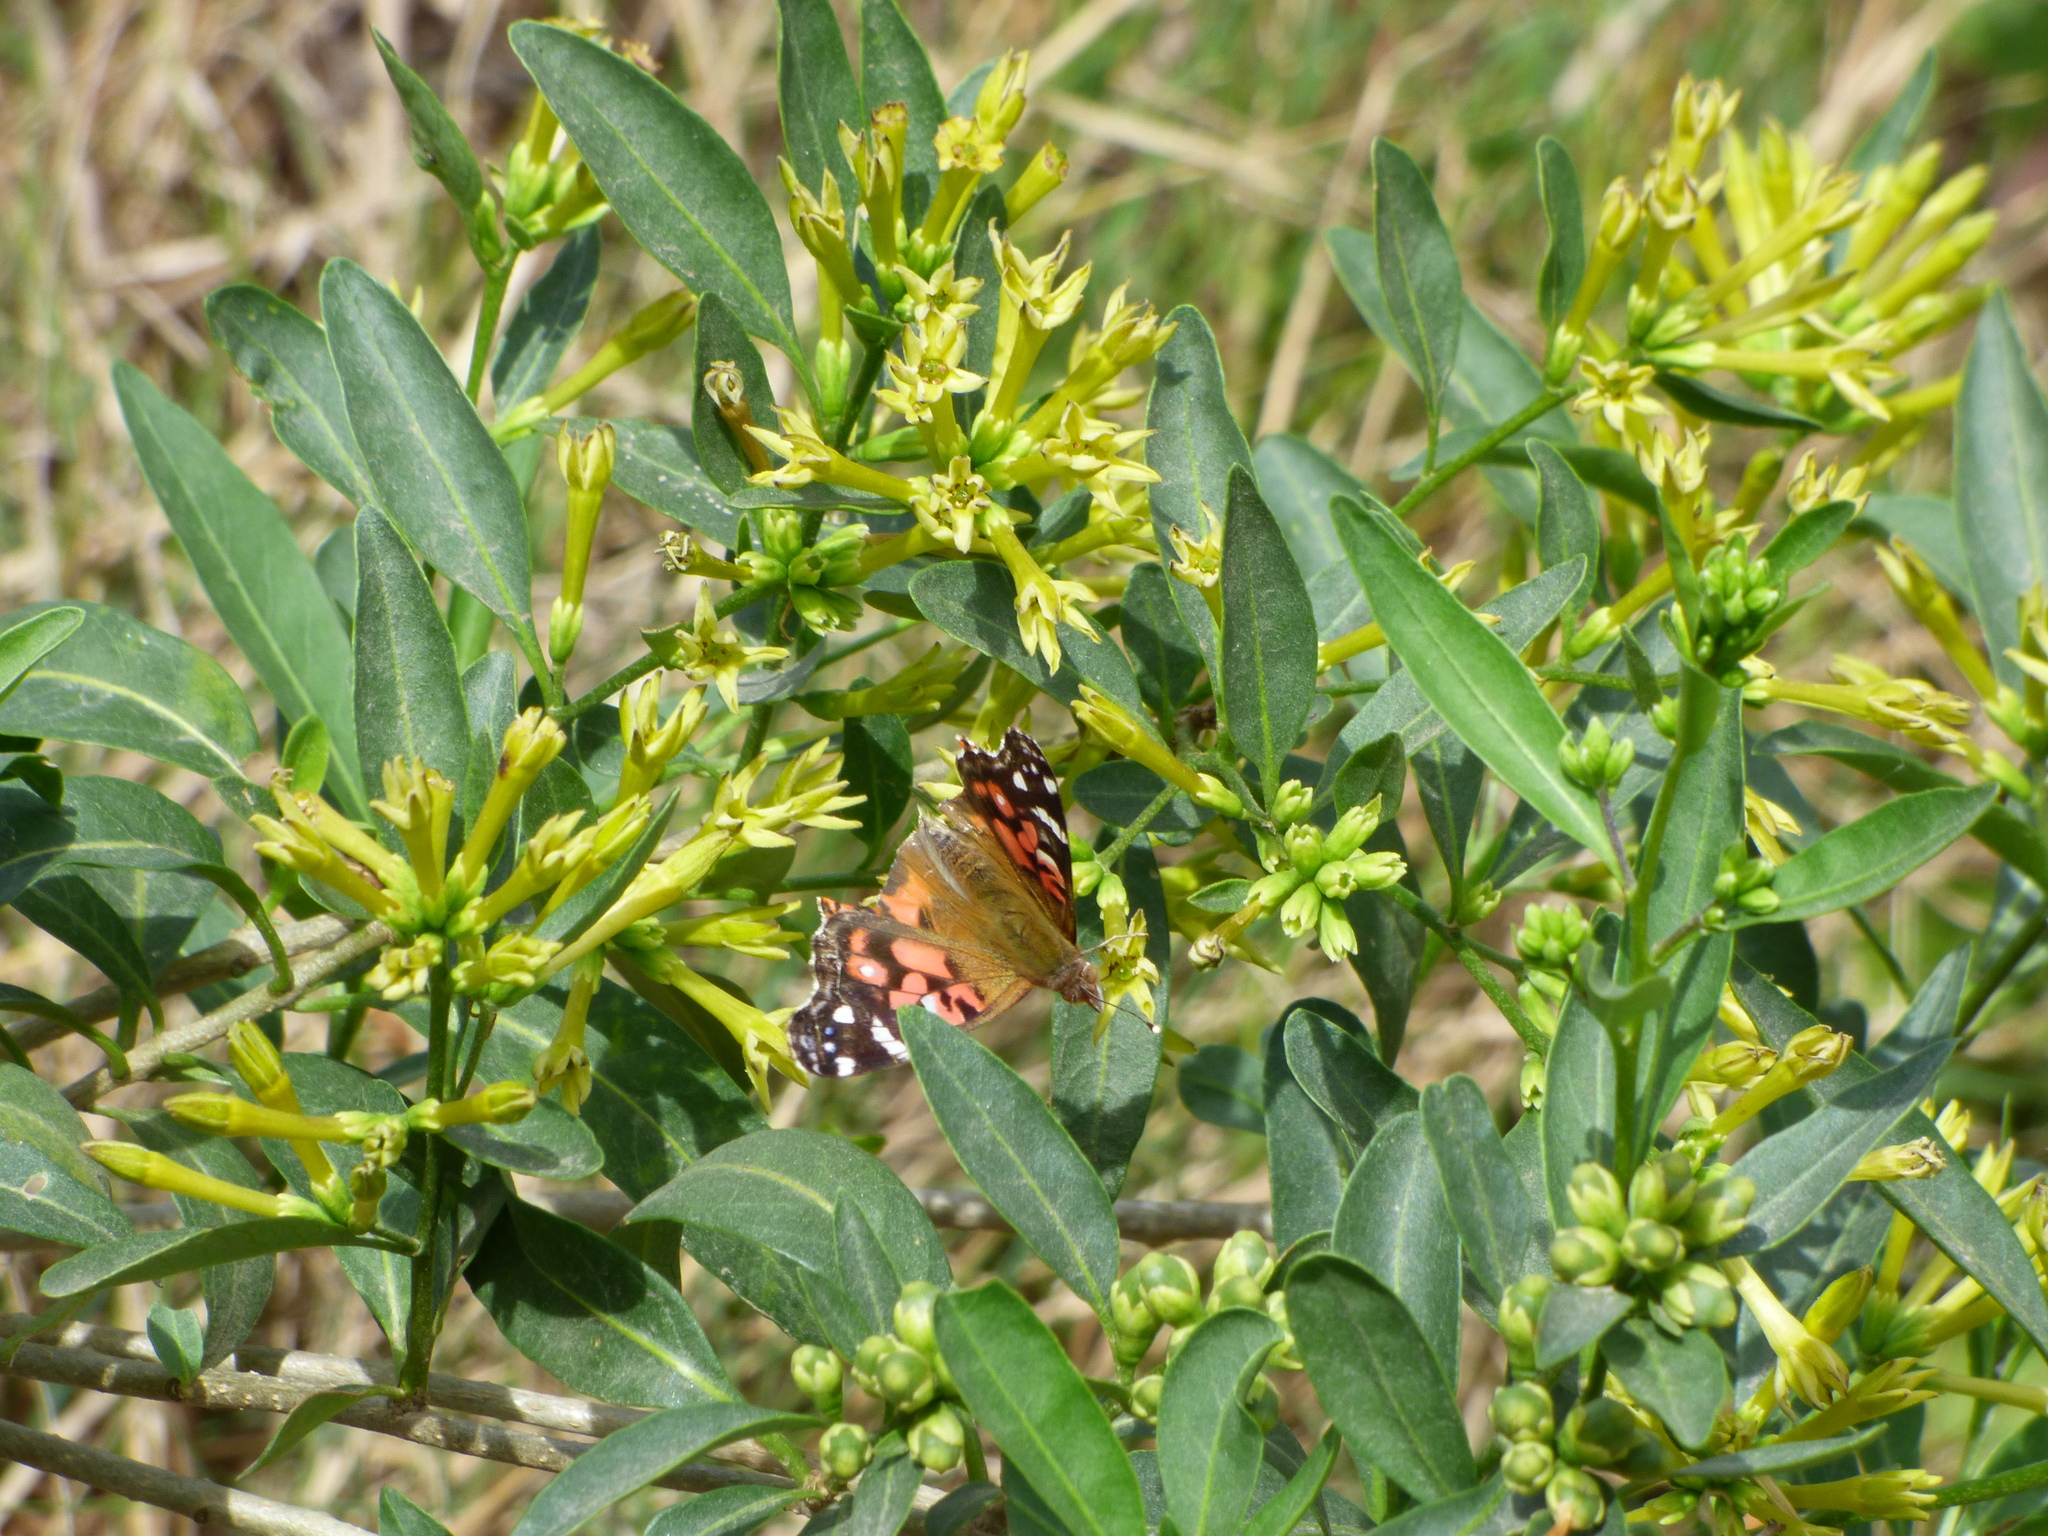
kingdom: Animalia
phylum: Arthropoda
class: Insecta
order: Lepidoptera
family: Nymphalidae
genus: Vanessa
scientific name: Vanessa braziliensis
